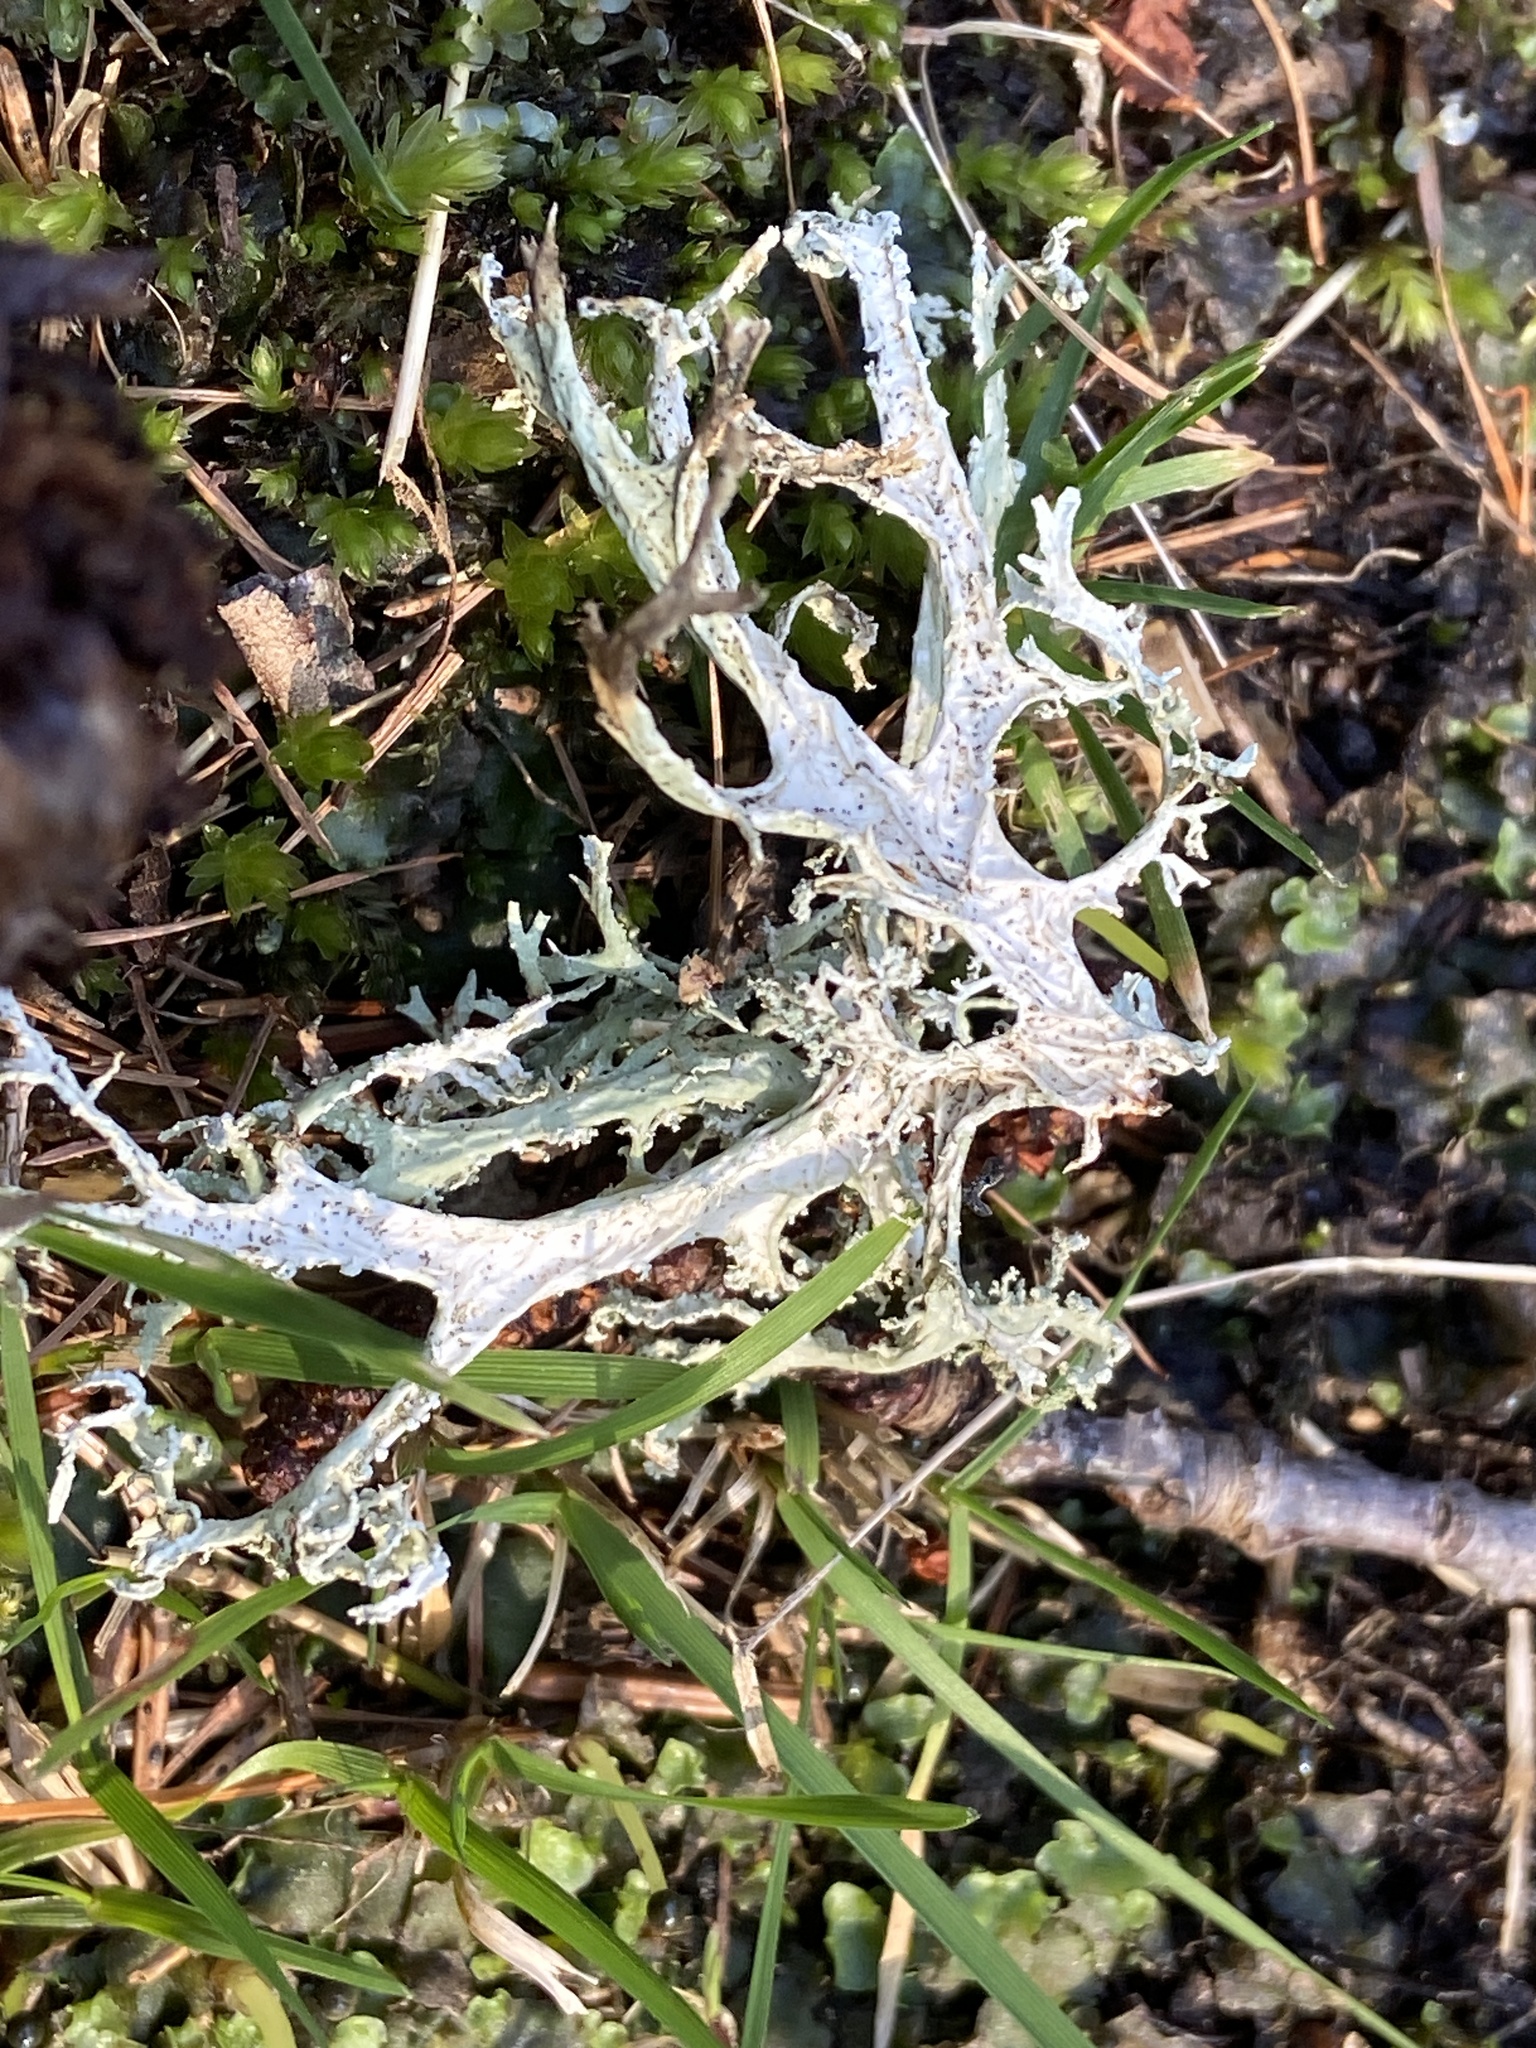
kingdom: Fungi
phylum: Ascomycota
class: Lecanoromycetes
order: Lecanorales
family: Parmeliaceae
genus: Evernia
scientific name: Evernia prunastri
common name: Oak moss
